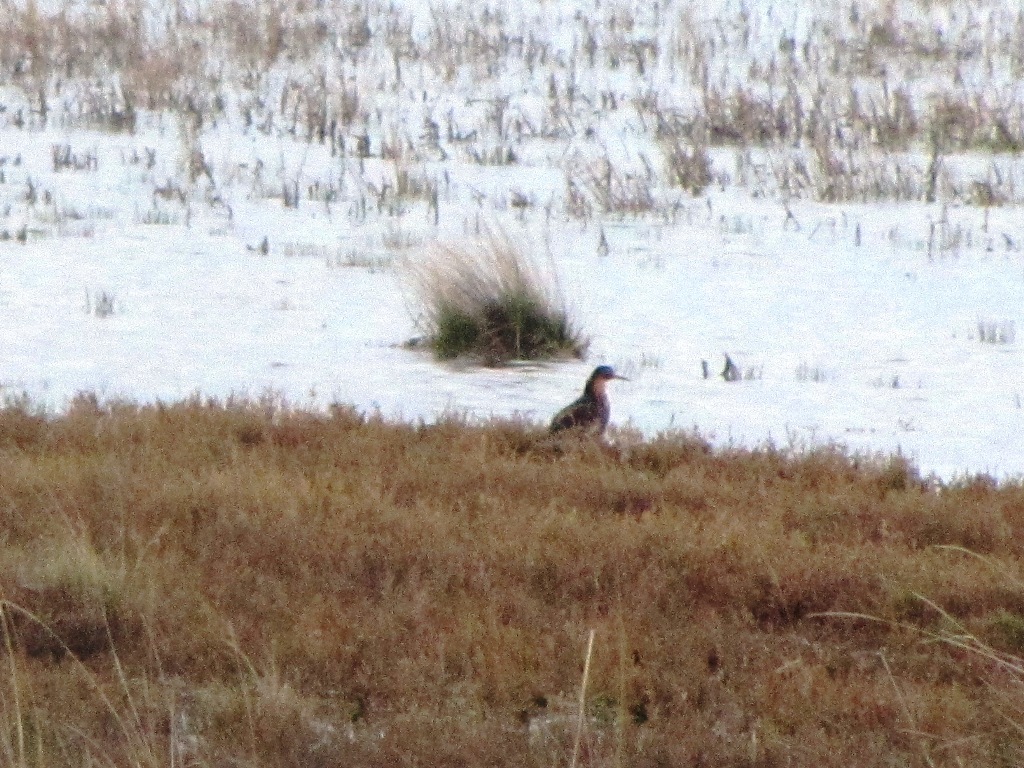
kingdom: Animalia
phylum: Chordata
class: Aves
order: Charadriiformes
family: Scolopacidae
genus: Calidris
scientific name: Calidris pugnax
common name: Ruff
